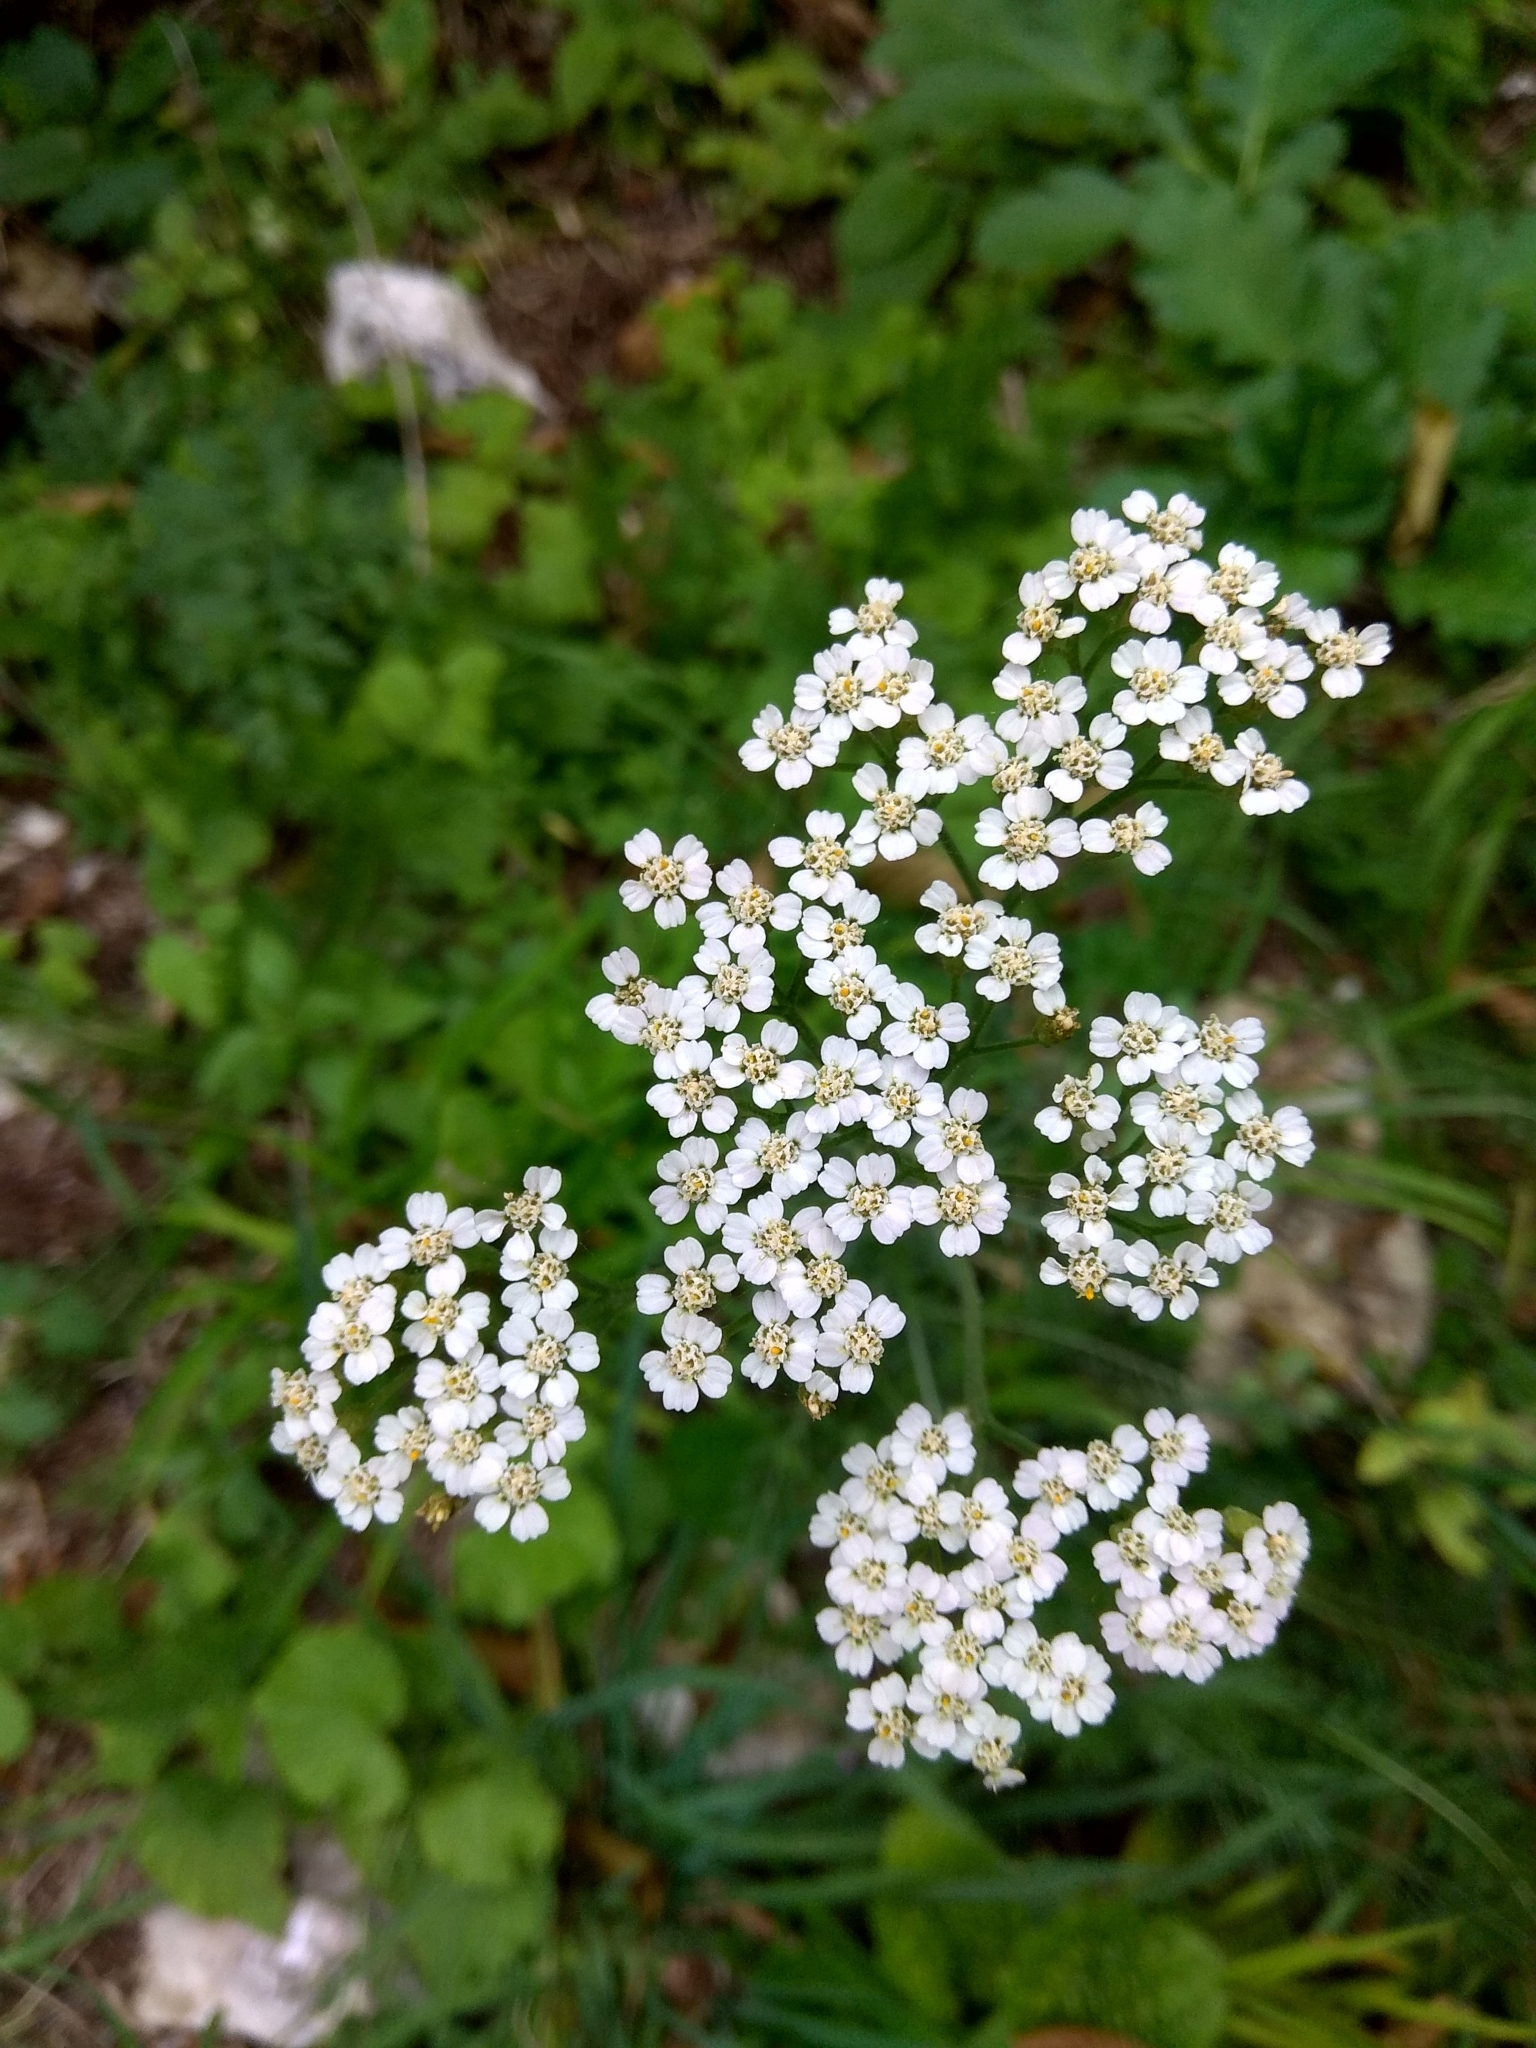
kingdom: Plantae
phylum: Tracheophyta
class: Magnoliopsida
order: Asterales
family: Asteraceae
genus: Achillea
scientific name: Achillea millefolium
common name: Yarrow
